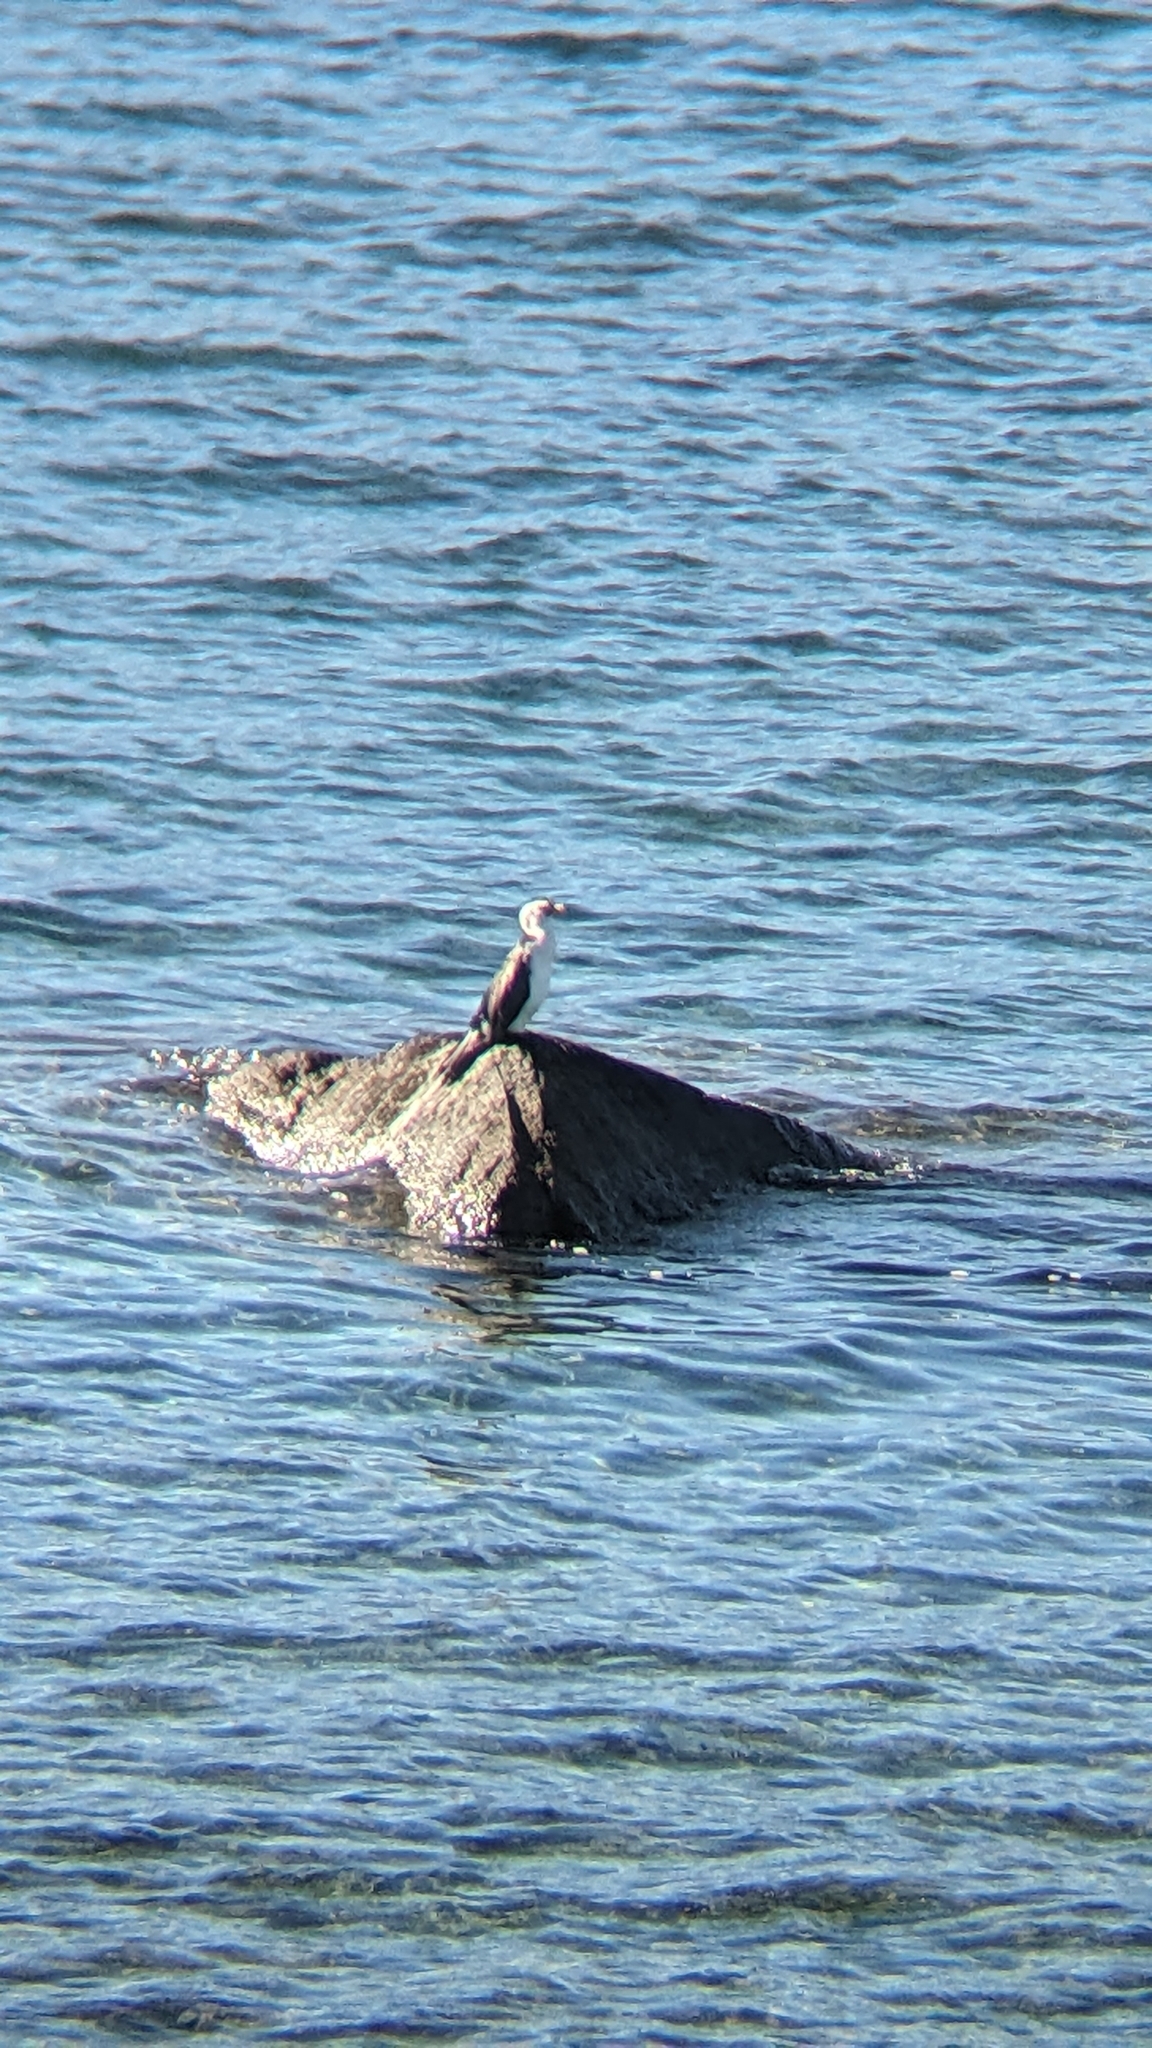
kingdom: Animalia
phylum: Chordata
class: Aves
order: Suliformes
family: Phalacrocoracidae
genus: Microcarbo
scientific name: Microcarbo melanoleucos
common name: Little pied cormorant
